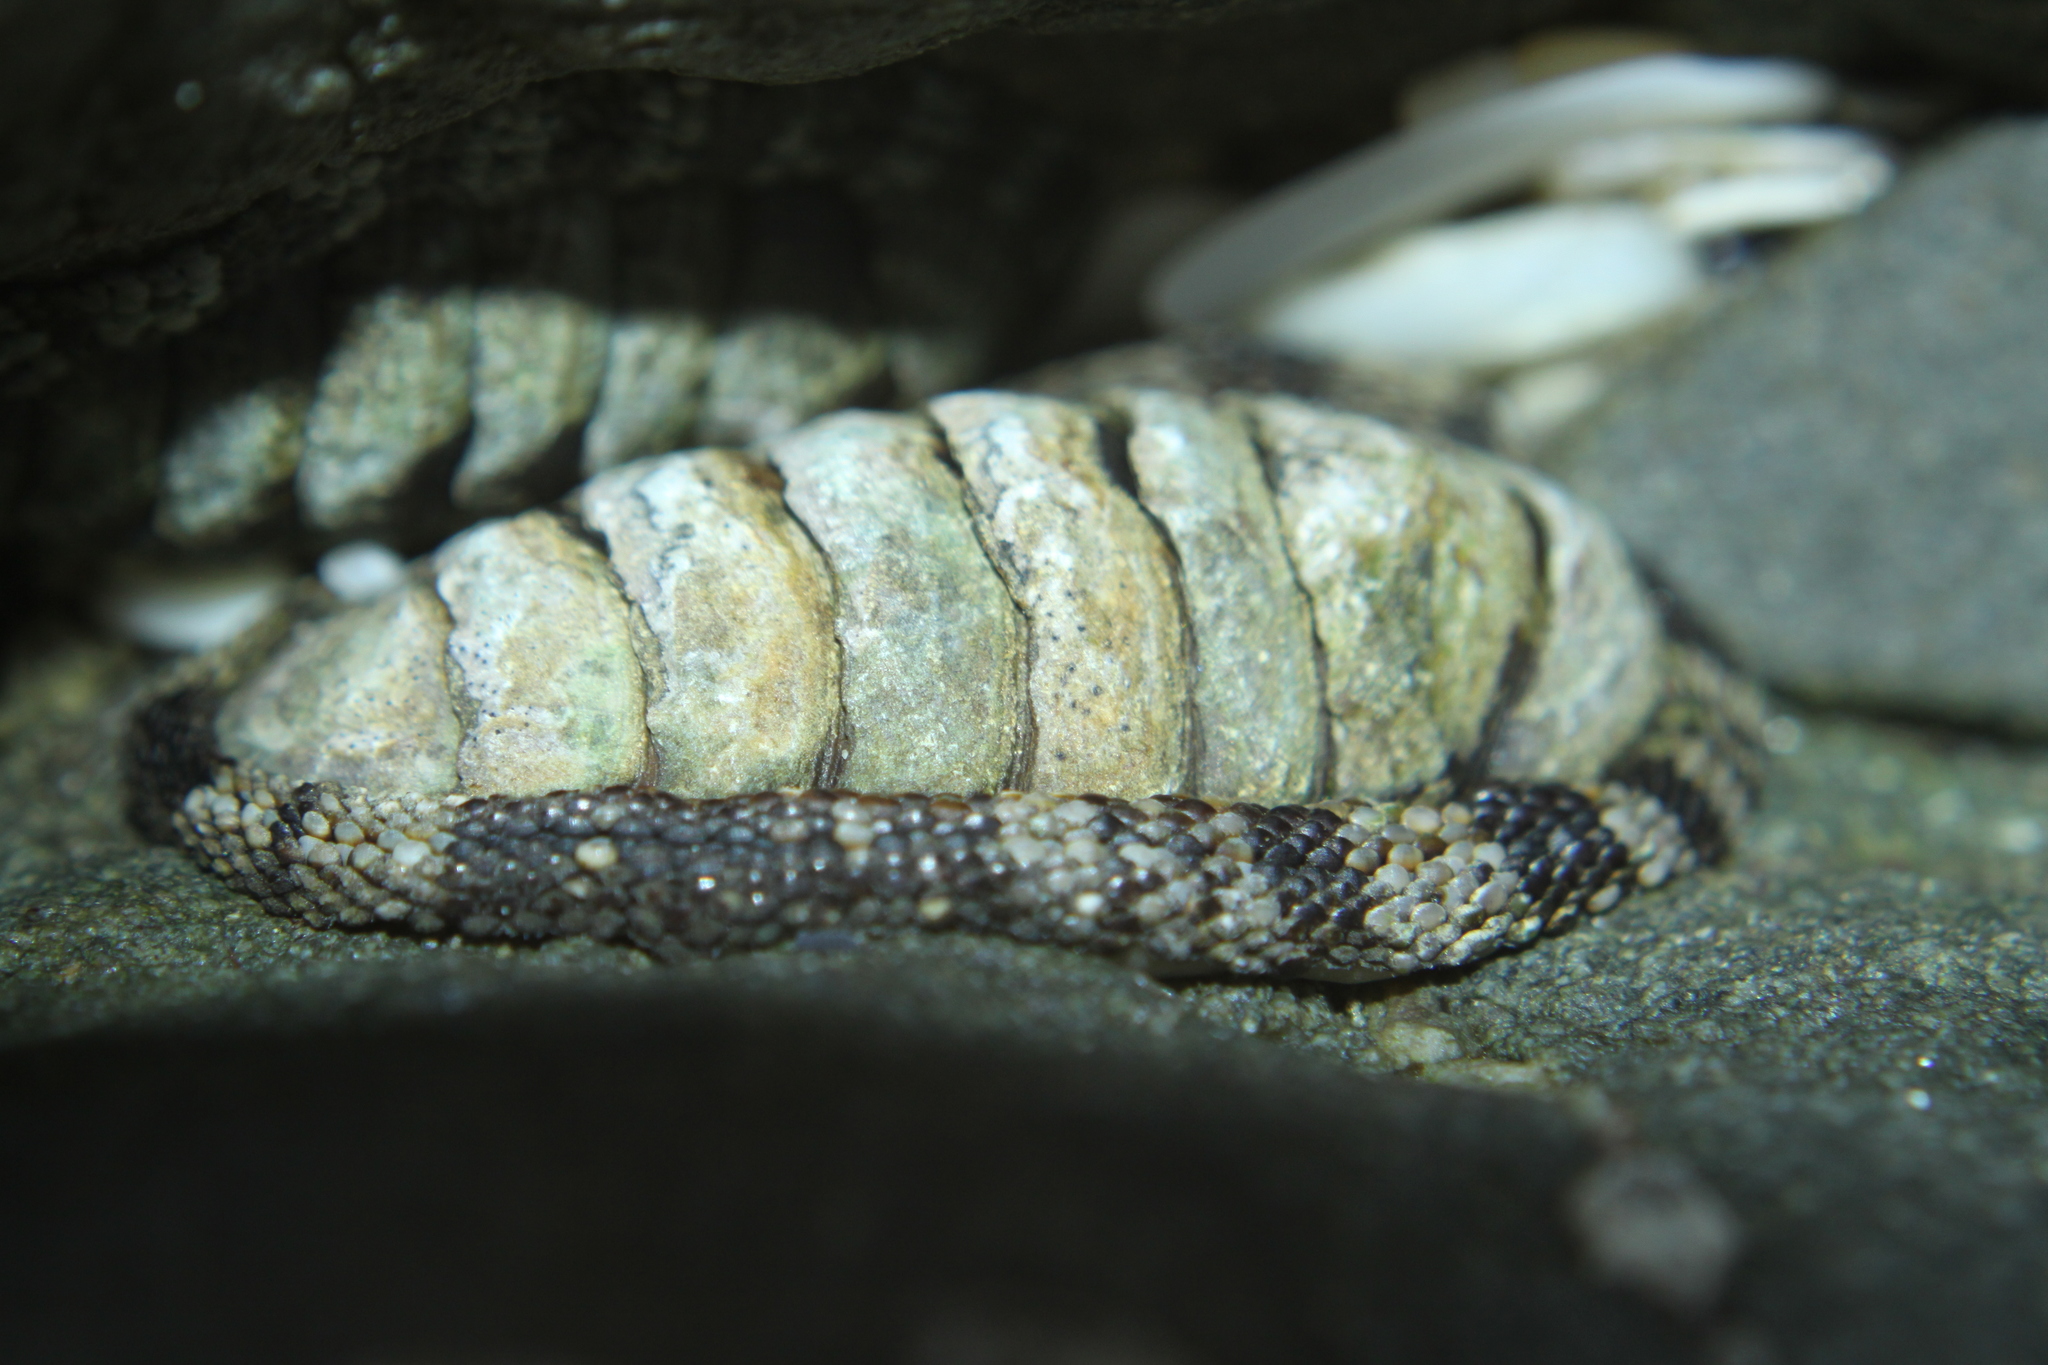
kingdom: Animalia
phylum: Mollusca
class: Polyplacophora
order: Chitonida
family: Chitonidae
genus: Sypharochiton
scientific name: Sypharochiton pelliserpentis
